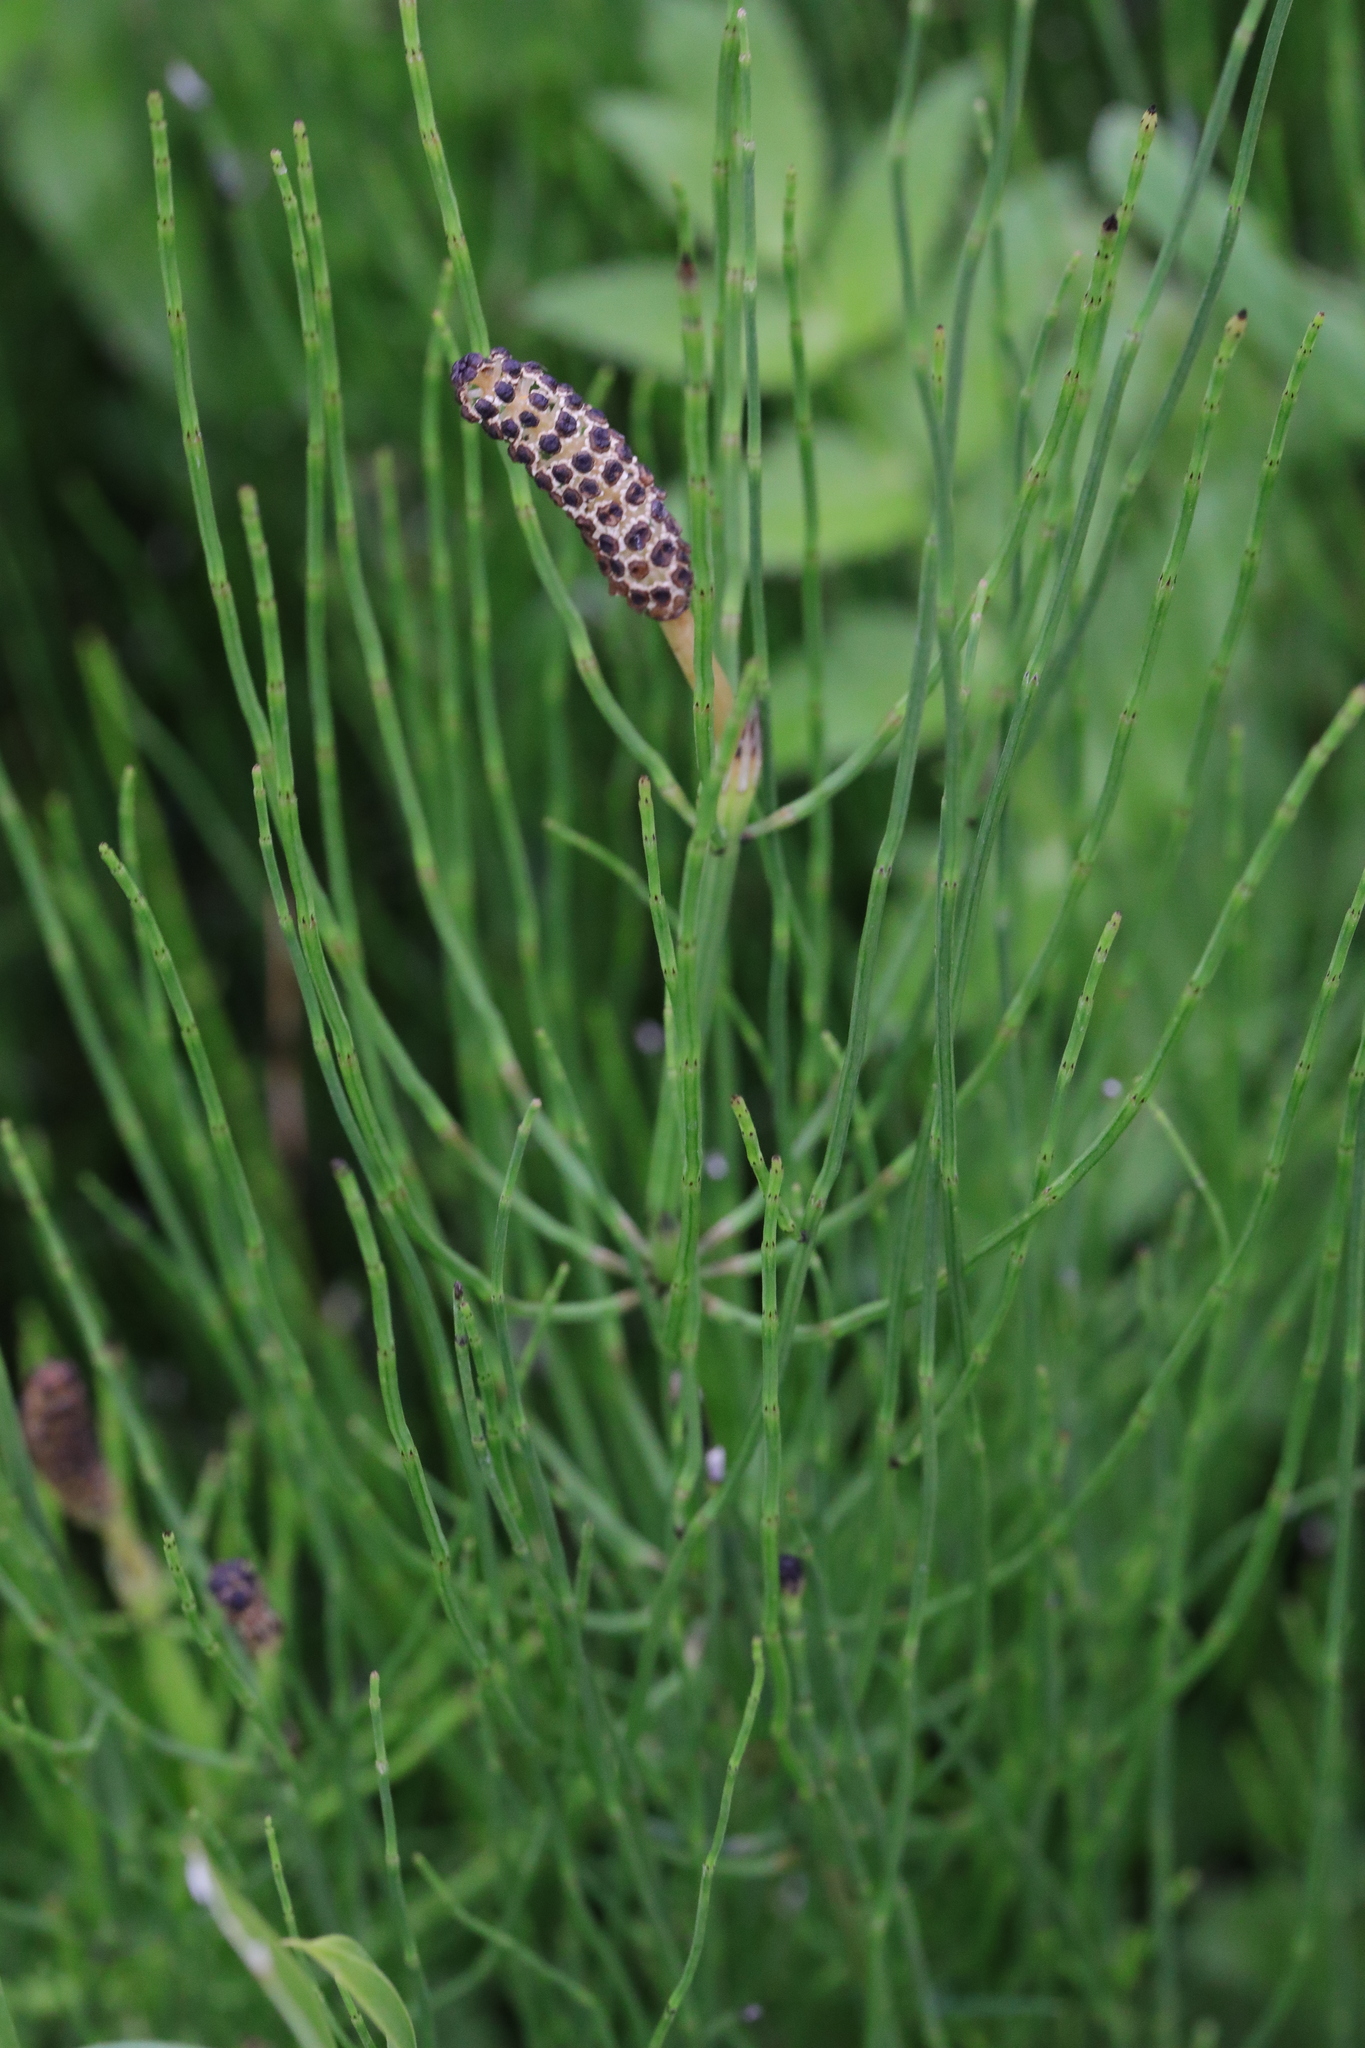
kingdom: Plantae
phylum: Tracheophyta
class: Polypodiopsida
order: Equisetales
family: Equisetaceae
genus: Equisetum
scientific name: Equisetum palustre
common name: Marsh horsetail
